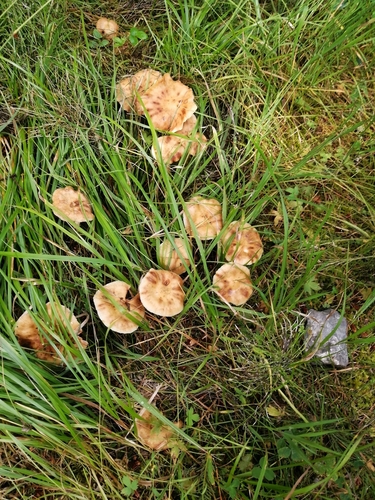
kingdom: Fungi
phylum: Basidiomycota
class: Agaricomycetes
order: Agaricales
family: Physalacriaceae
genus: Armillaria
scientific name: Armillaria cepistipes
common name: Mullet honey fungus
